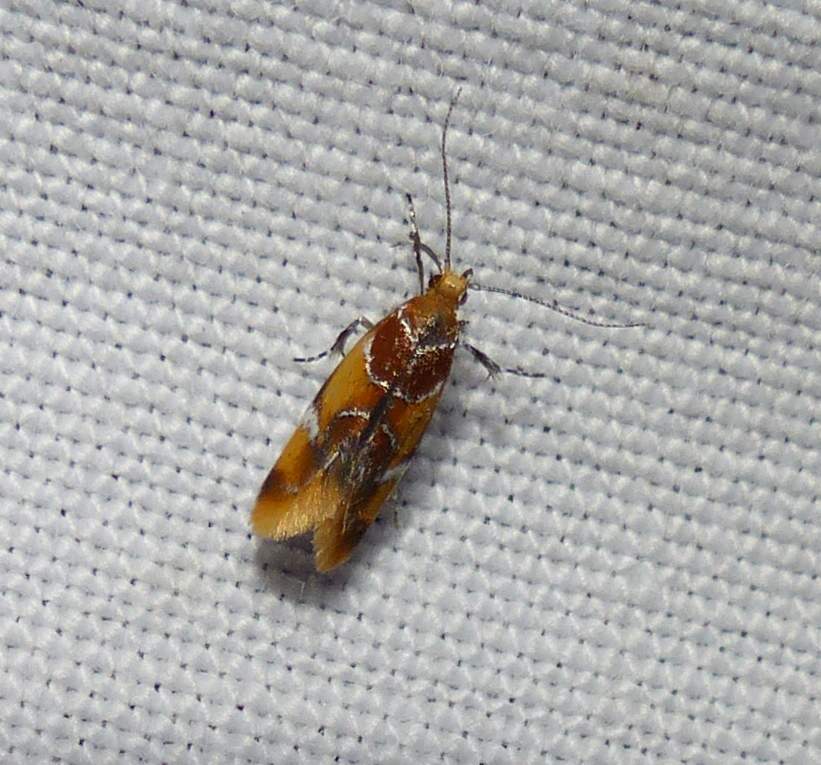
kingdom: Animalia
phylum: Arthropoda
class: Insecta
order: Lepidoptera
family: Oecophoridae
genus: Callima
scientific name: Callima argenticinctella
